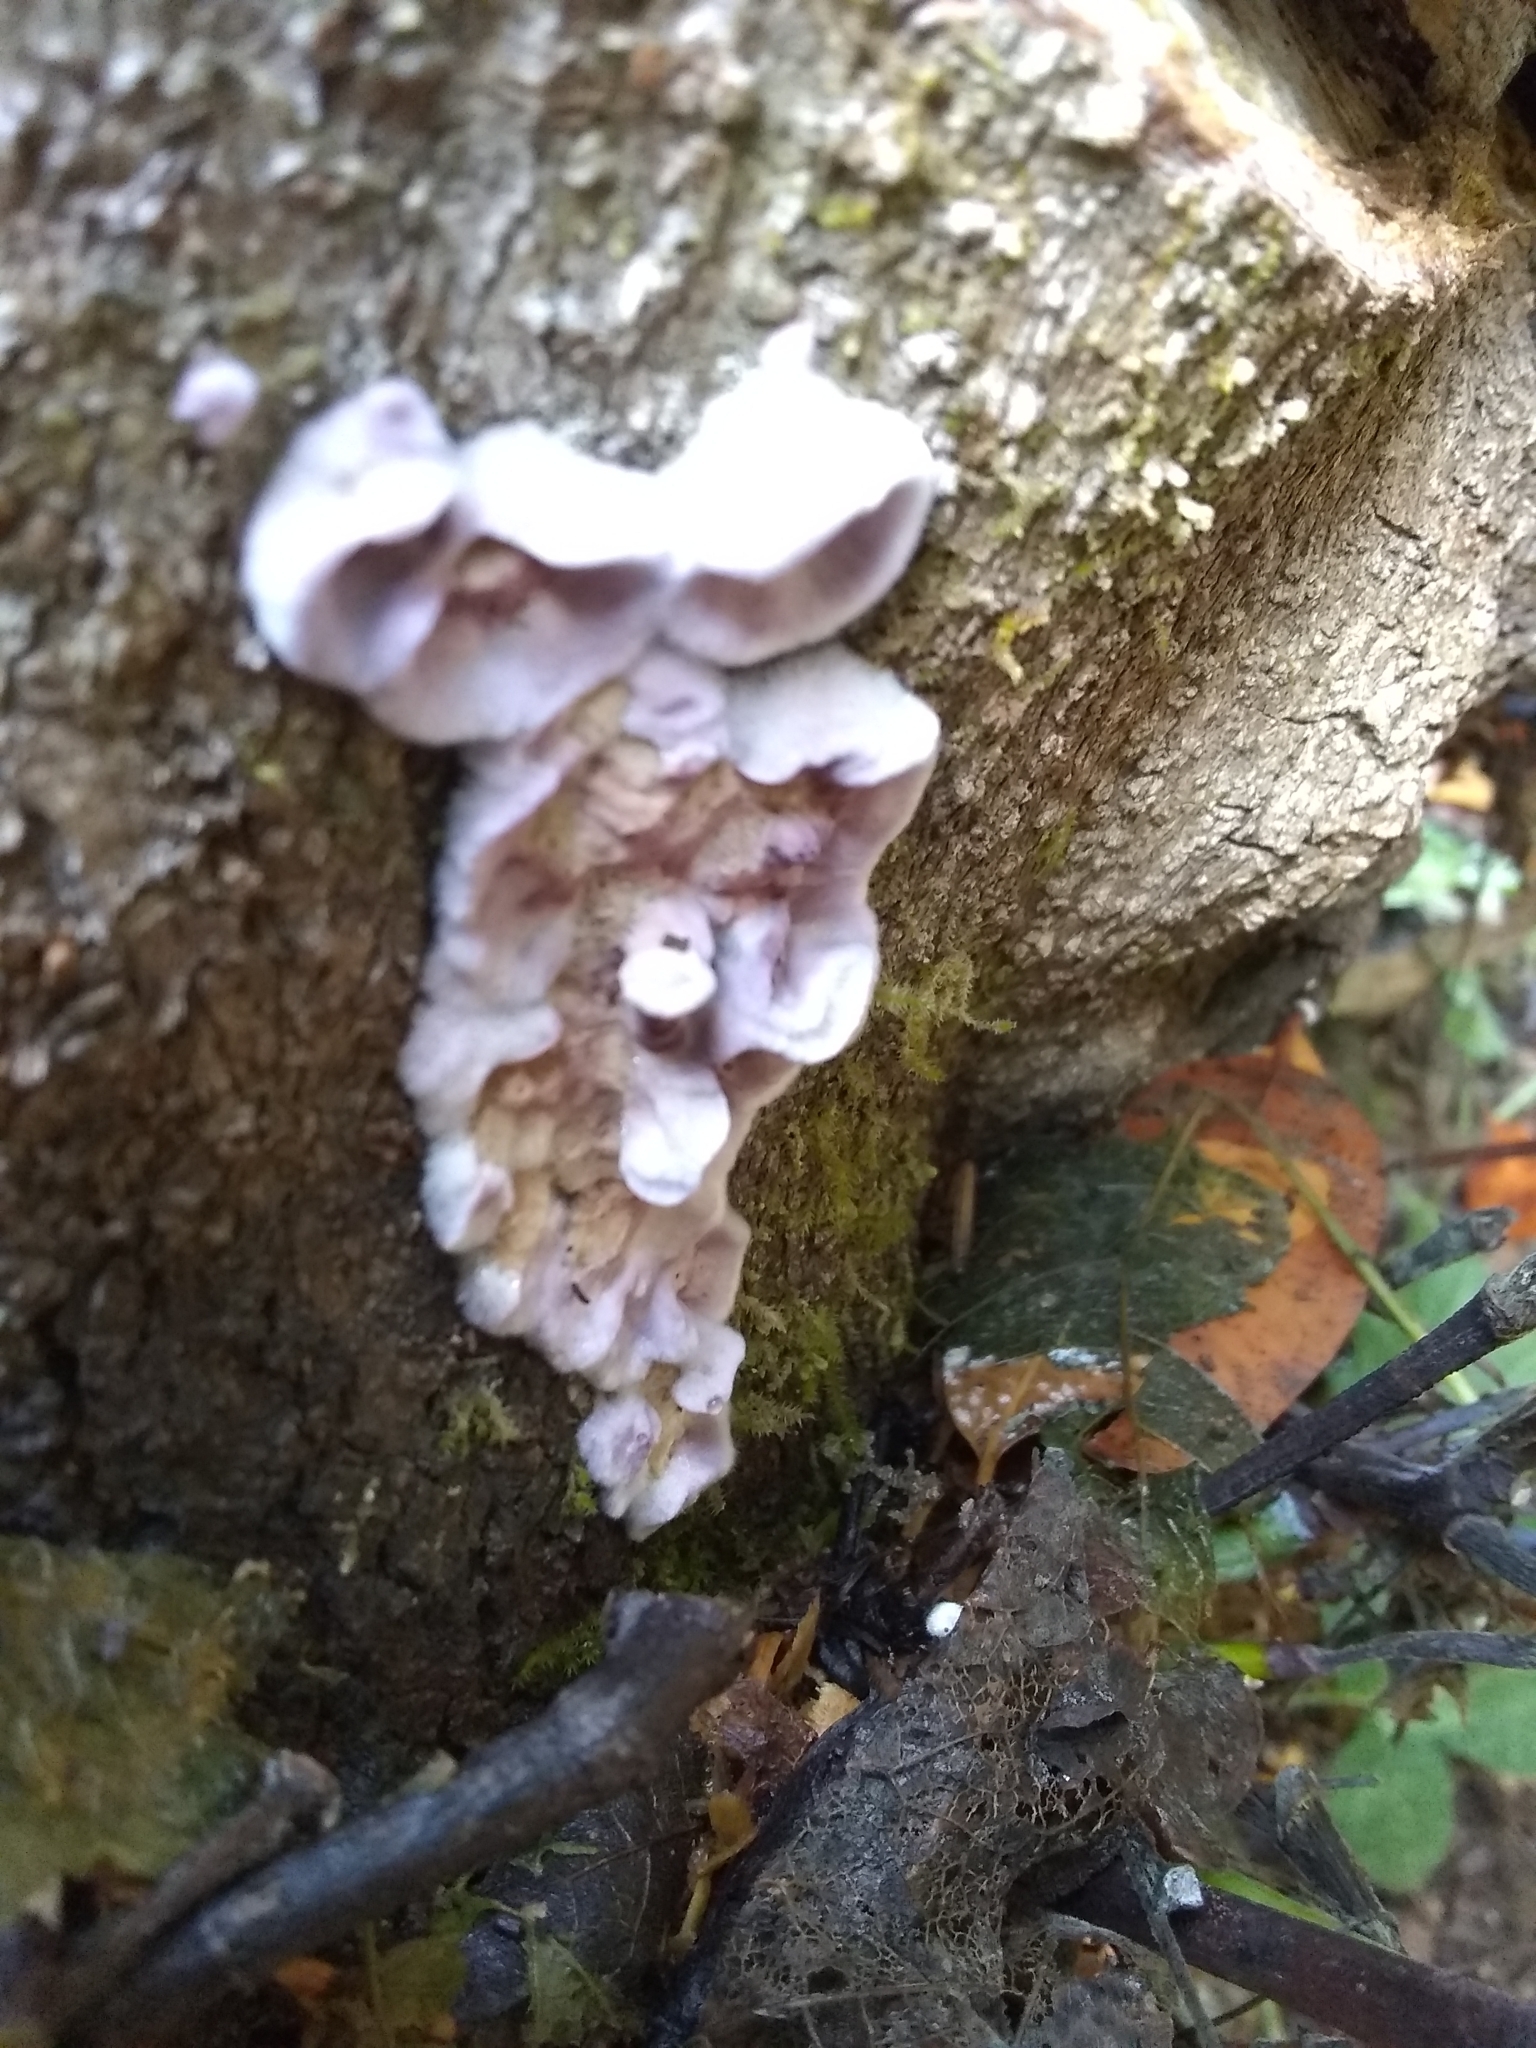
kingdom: Fungi
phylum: Basidiomycota
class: Agaricomycetes
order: Agaricales
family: Cyphellaceae
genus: Chondrostereum
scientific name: Chondrostereum purpureum
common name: Silver leaf disease
